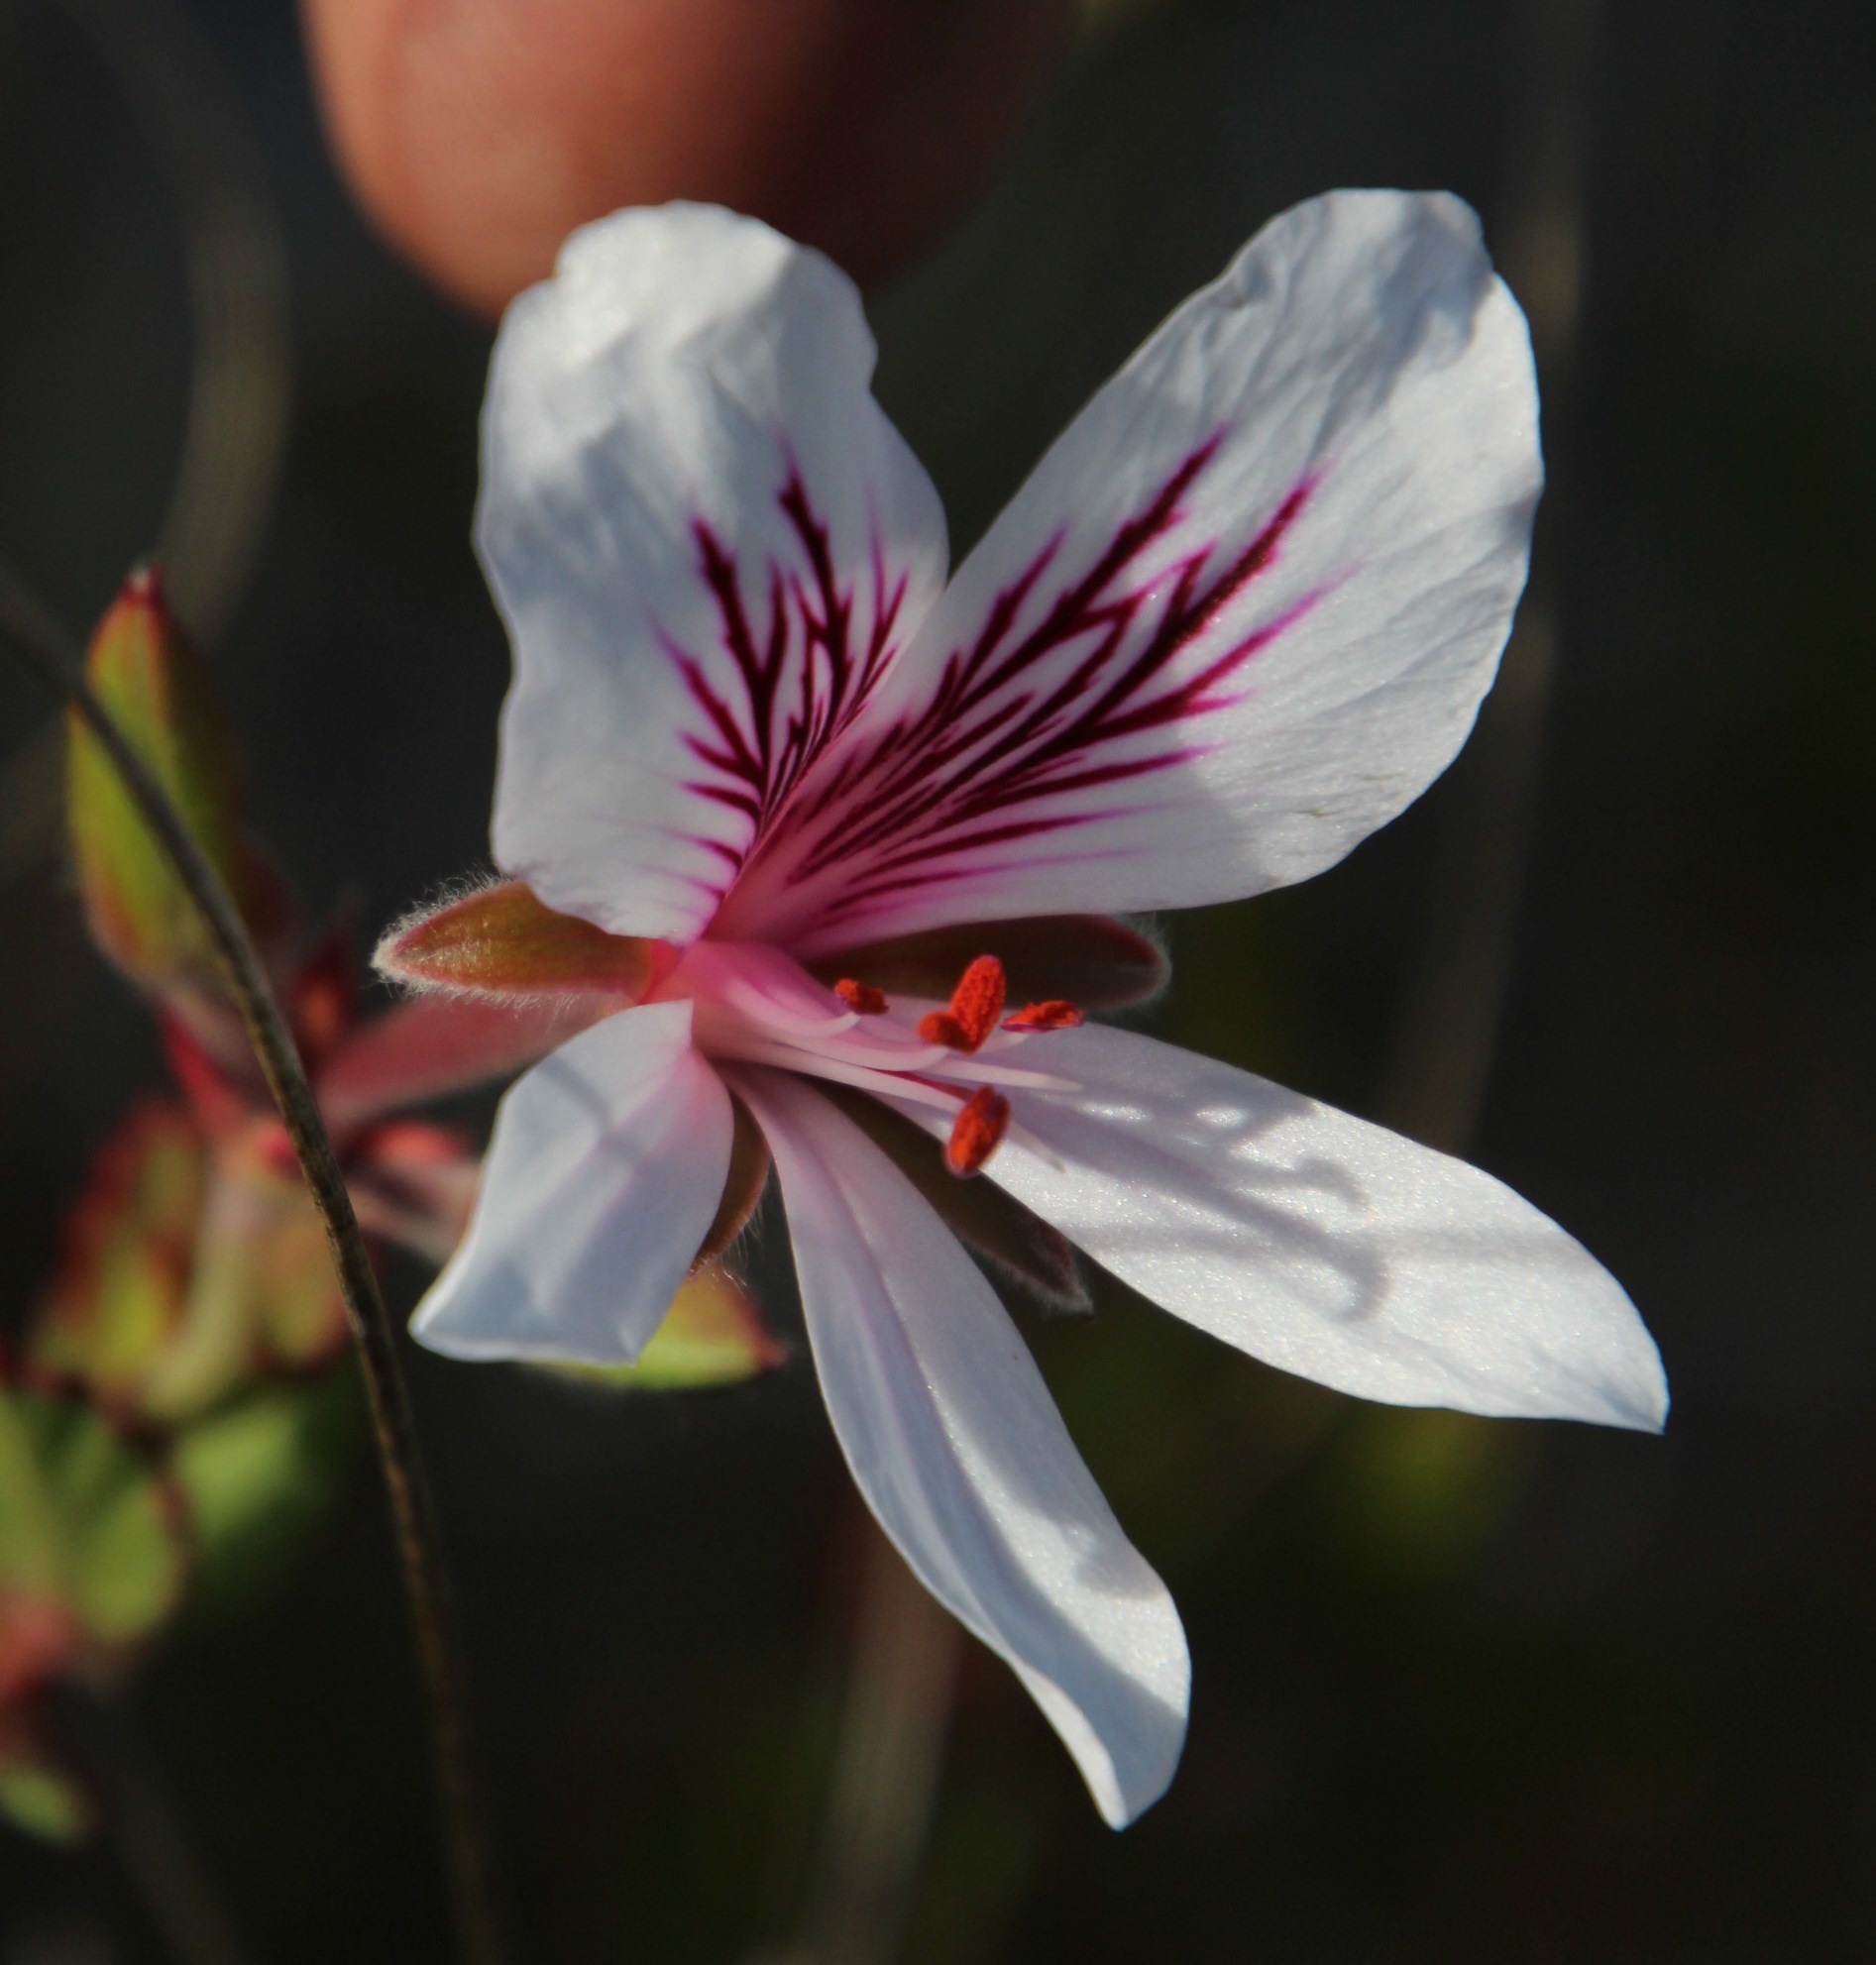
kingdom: Plantae
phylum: Tracheophyta
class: Magnoliopsida
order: Geraniales
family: Geraniaceae
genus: Pelargonium
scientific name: Pelargonium betulinum
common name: Birch-leaf pelargonium
